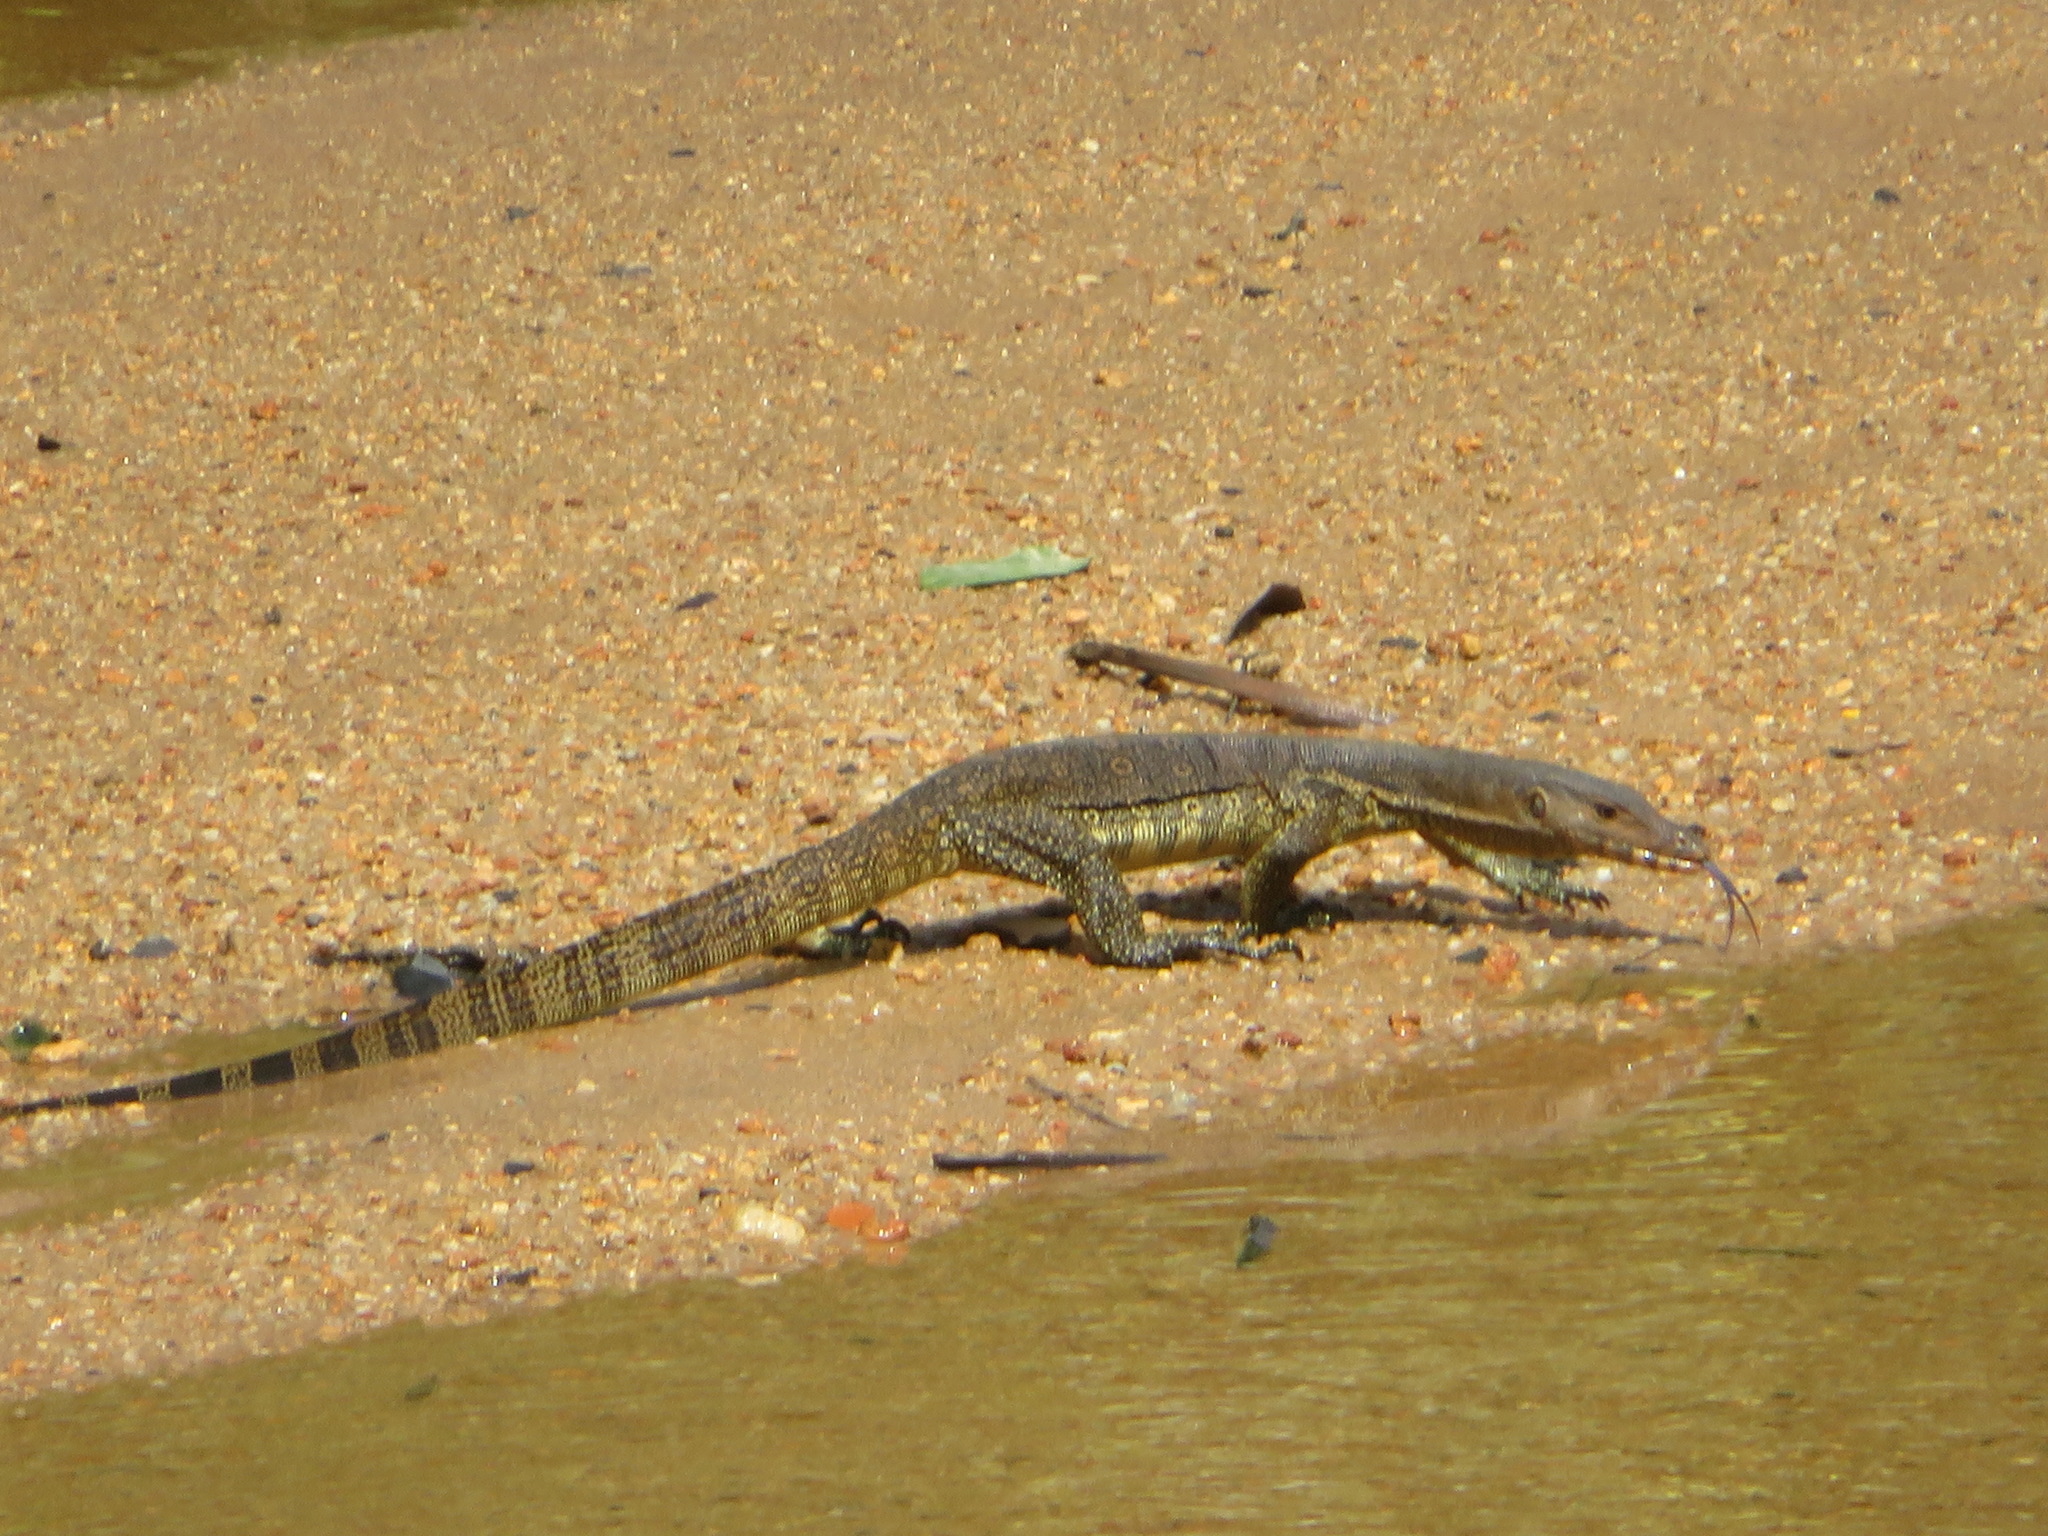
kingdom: Animalia
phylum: Chordata
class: Squamata
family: Varanidae
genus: Varanus
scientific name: Varanus salvator
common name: Common water monitor
